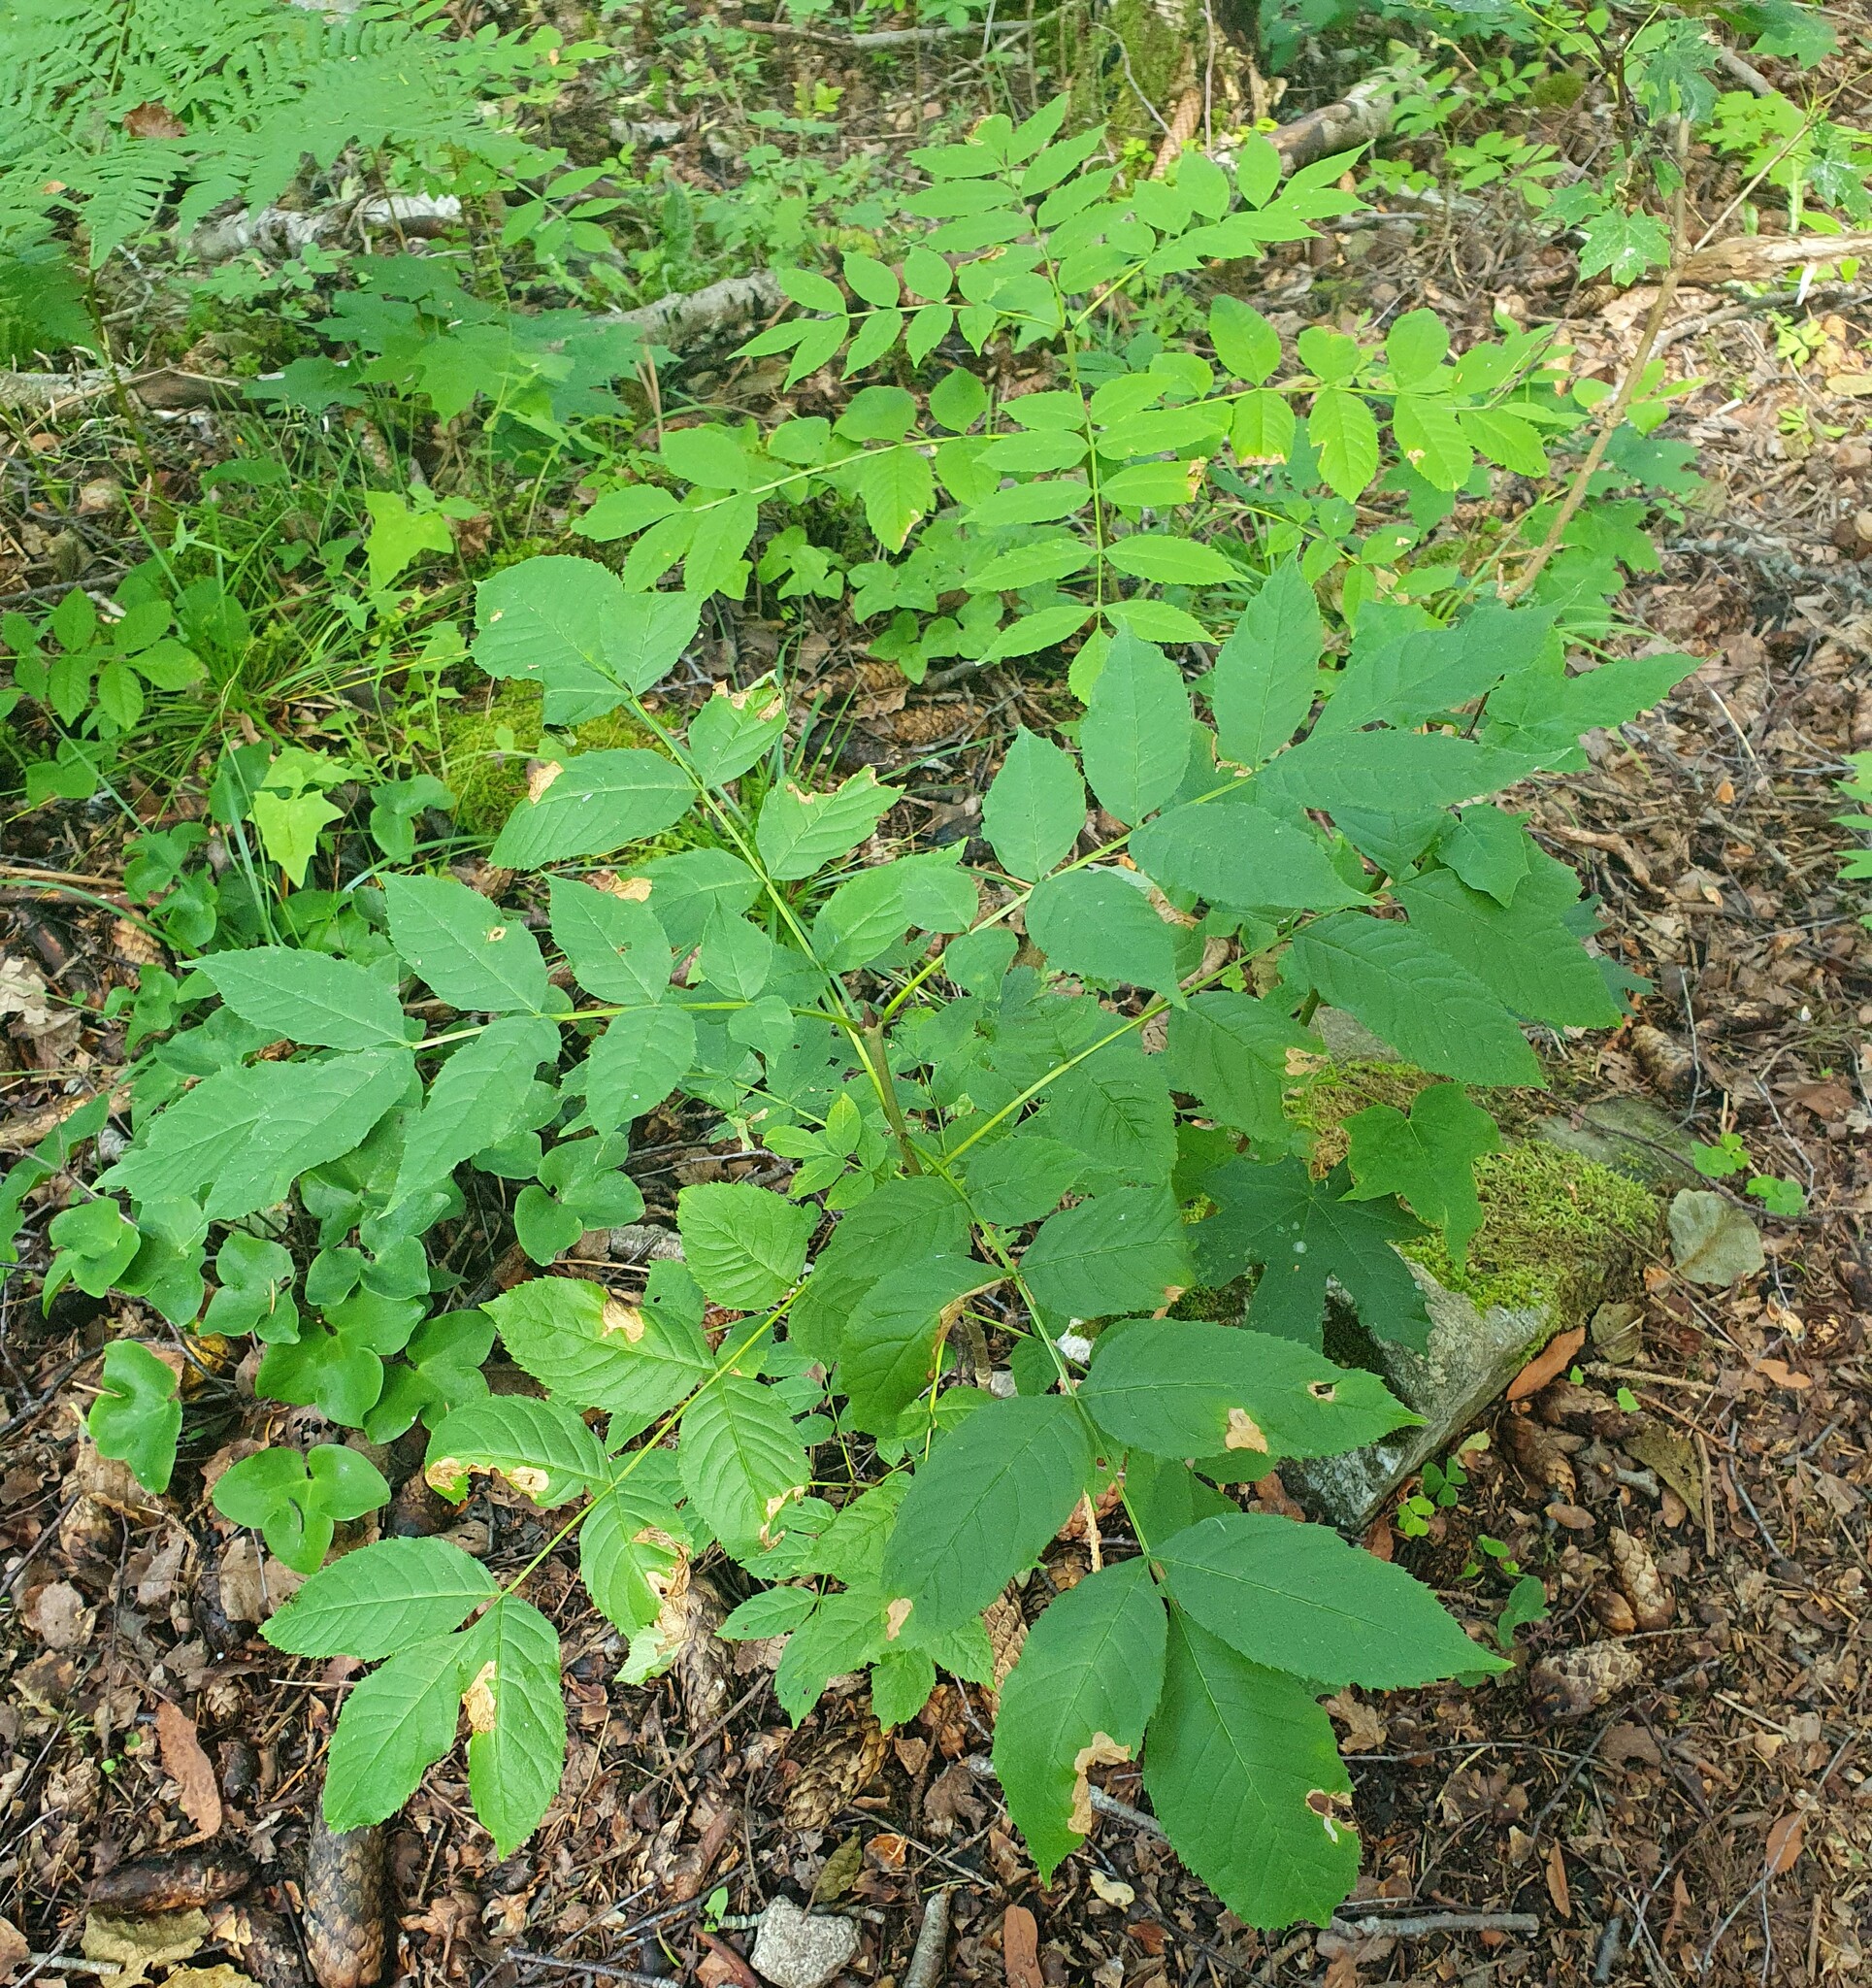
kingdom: Plantae
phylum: Tracheophyta
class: Magnoliopsida
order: Lamiales
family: Oleaceae
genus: Fraxinus
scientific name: Fraxinus excelsior
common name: European ash
